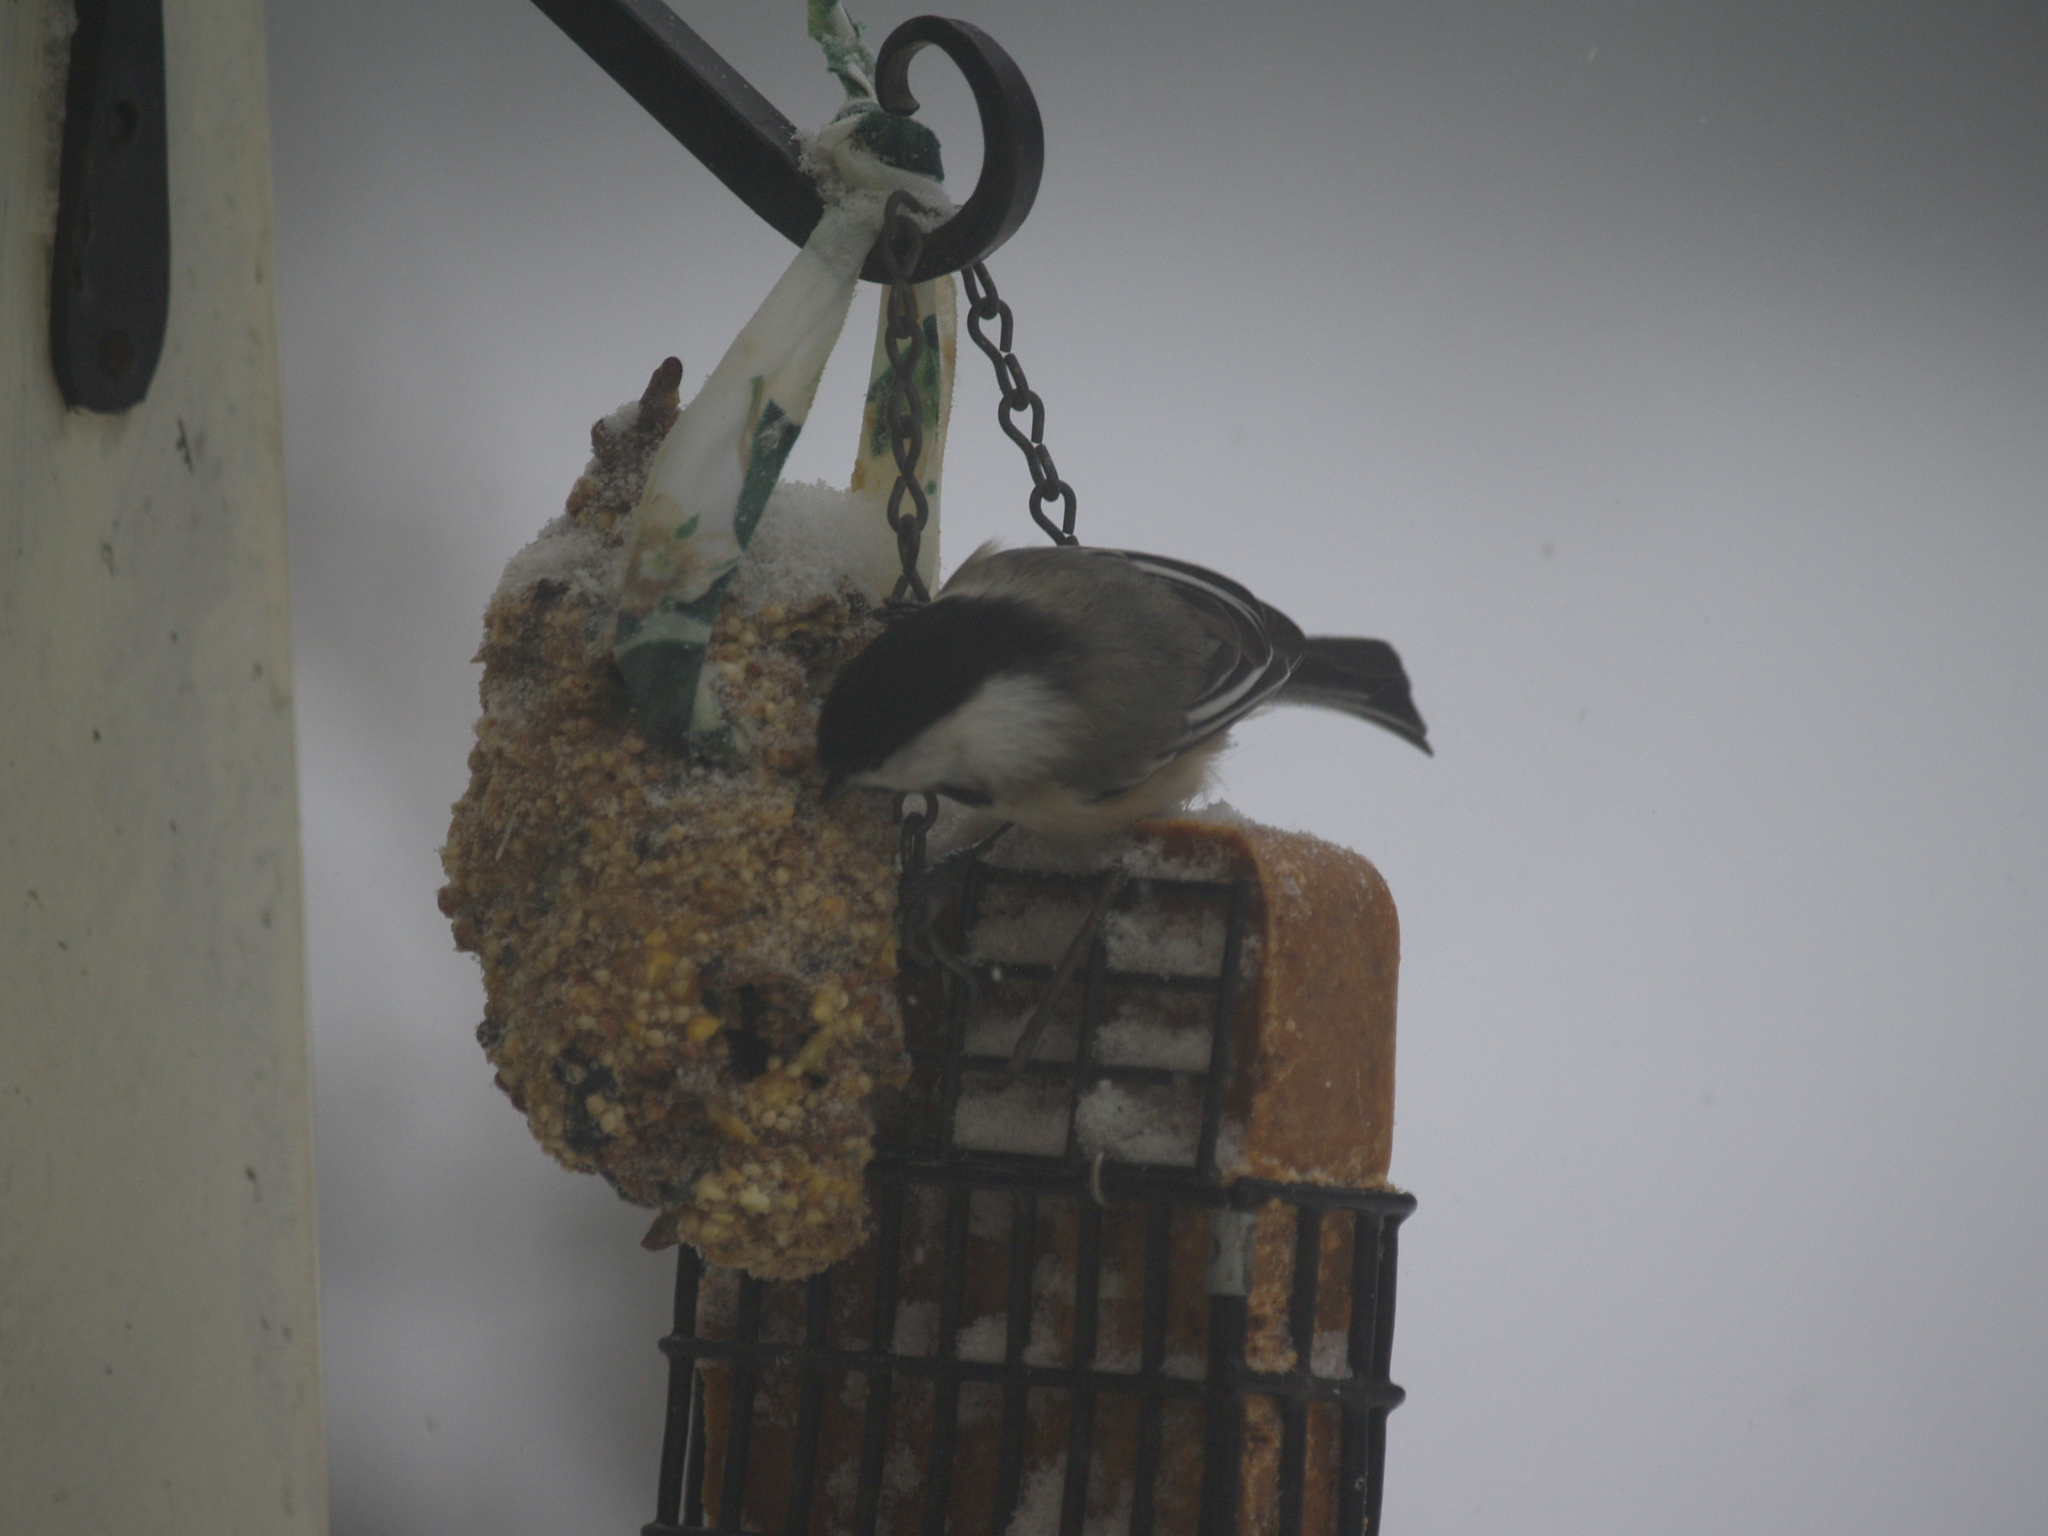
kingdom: Animalia
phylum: Chordata
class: Aves
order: Passeriformes
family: Paridae
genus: Poecile
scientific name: Poecile atricapillus
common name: Black-capped chickadee
